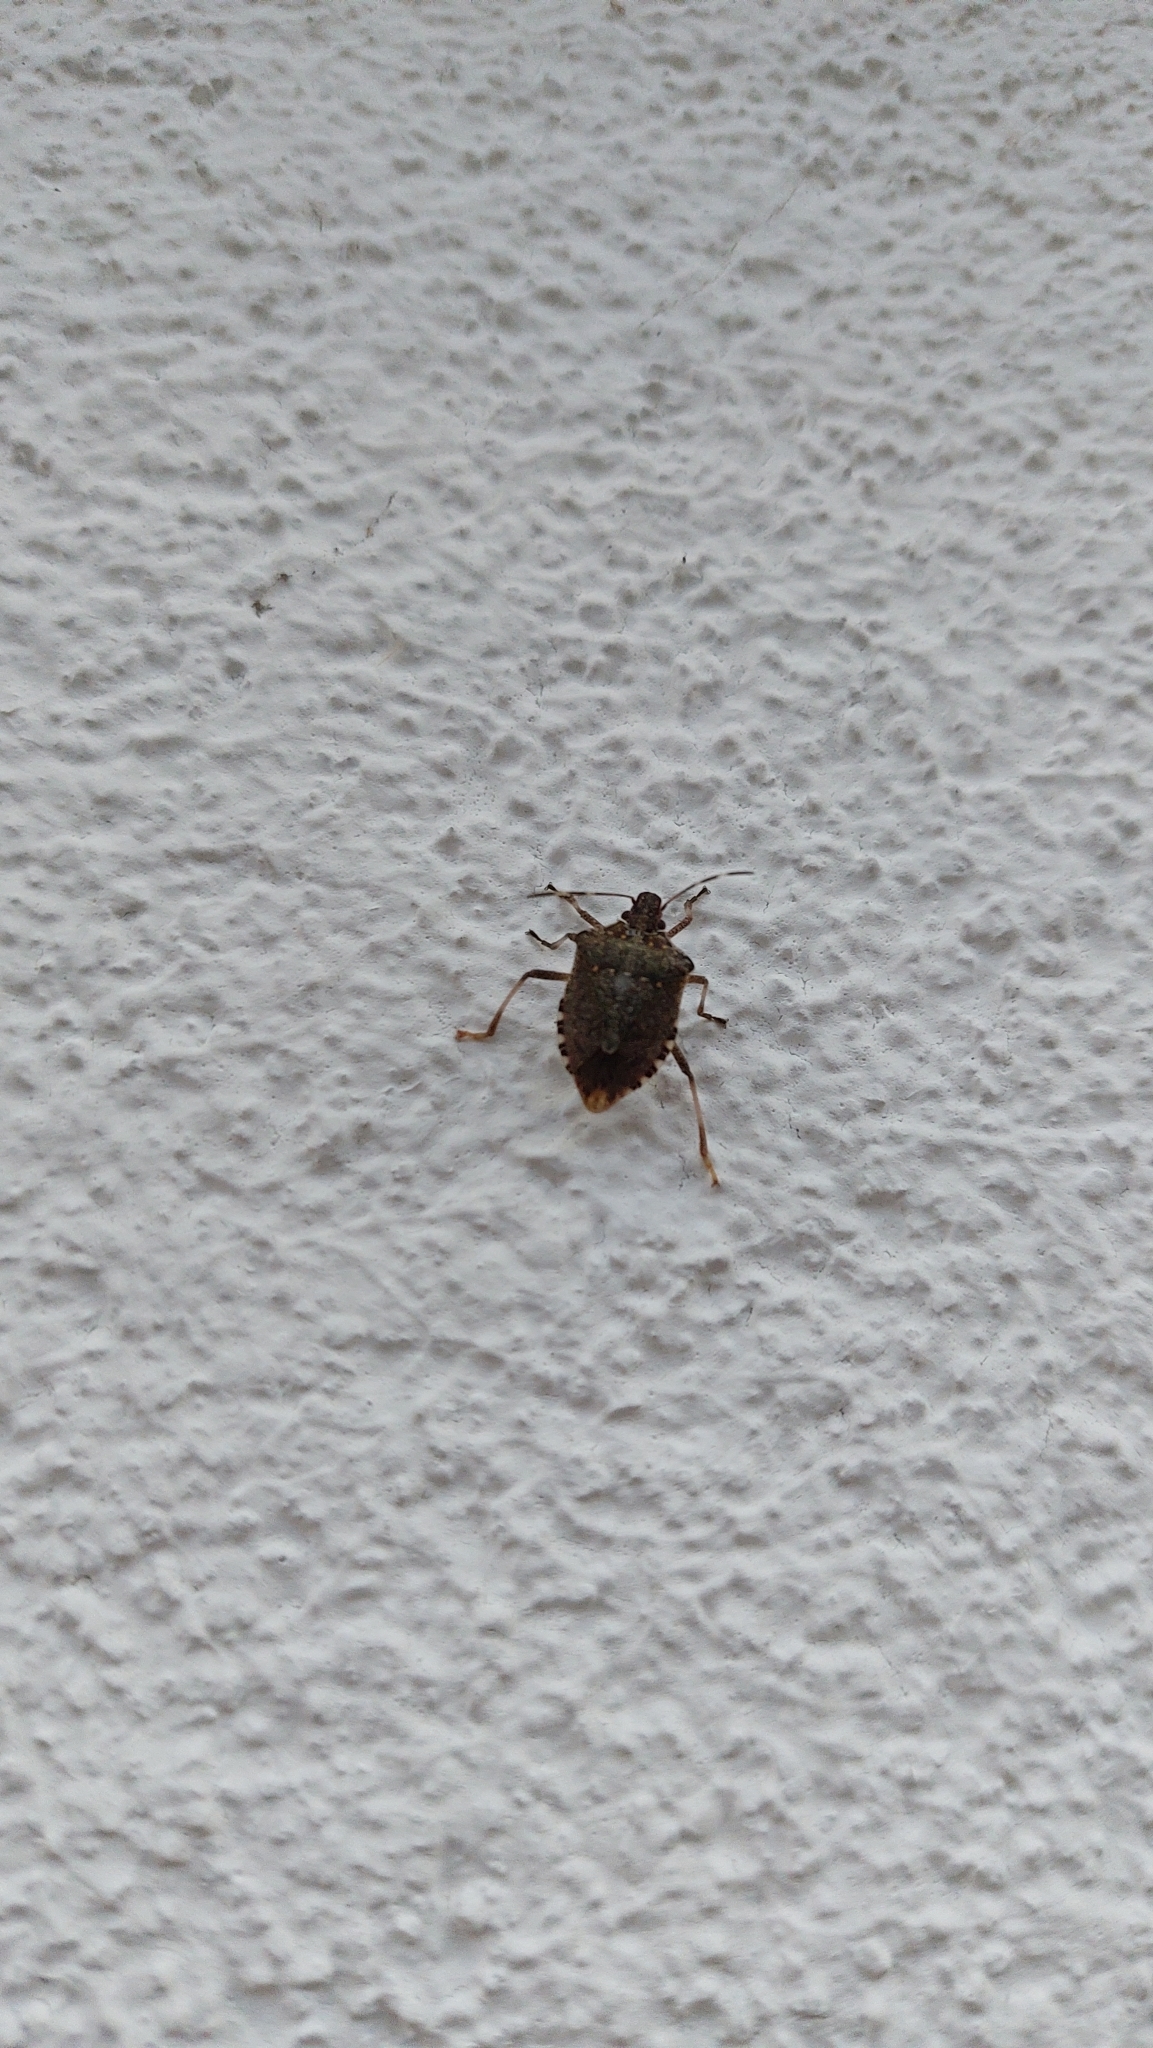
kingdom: Animalia
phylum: Arthropoda
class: Insecta
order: Hemiptera
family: Pentatomidae
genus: Halyomorpha
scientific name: Halyomorpha halys
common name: Brown marmorated stink bug
